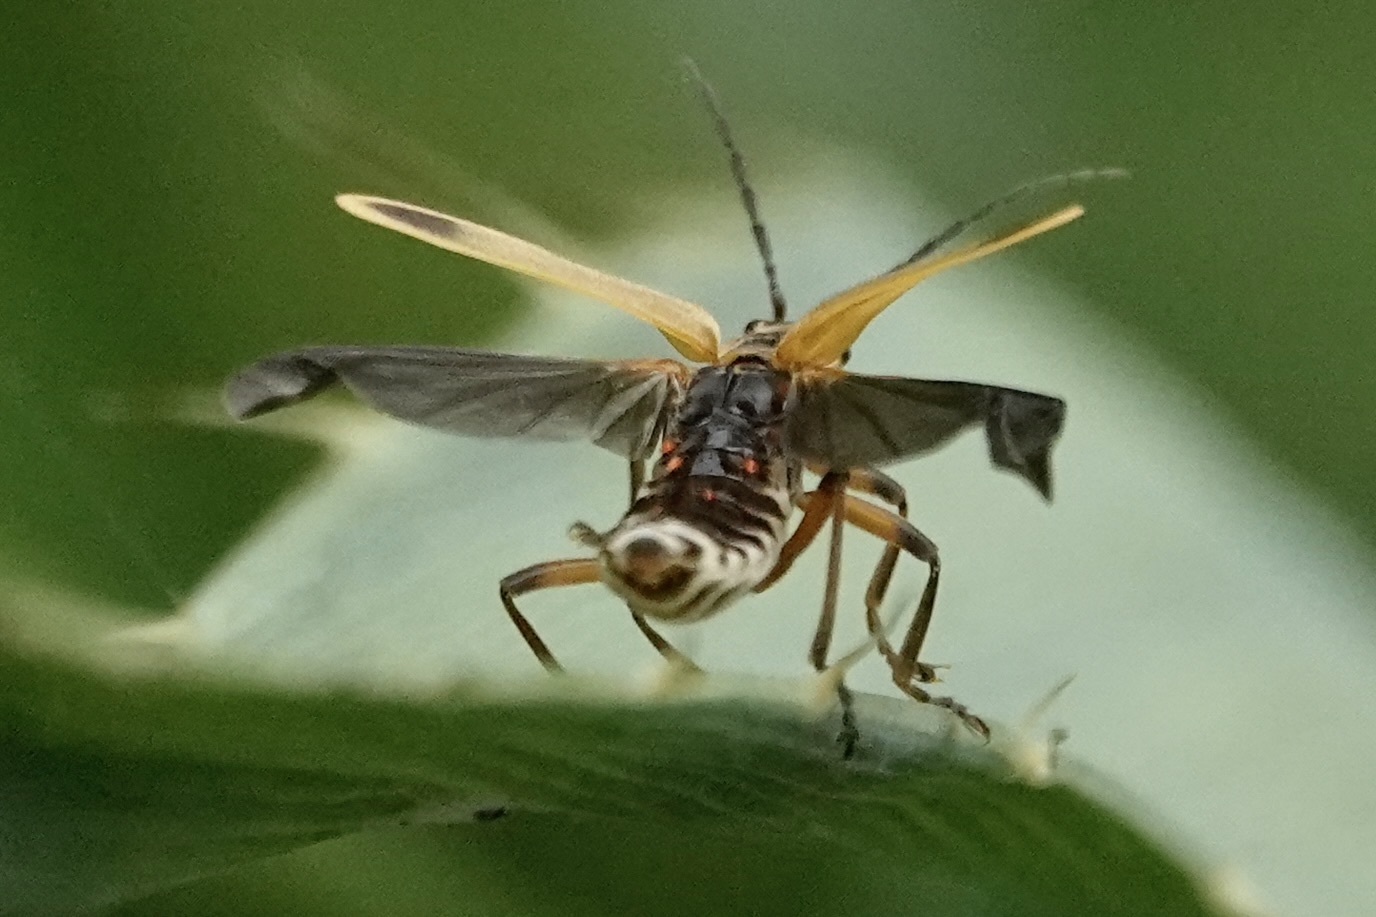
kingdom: Animalia
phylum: Arthropoda
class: Insecta
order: Coleoptera
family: Cantharidae
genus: Chauliognathus
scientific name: Chauliognathus marginatus
